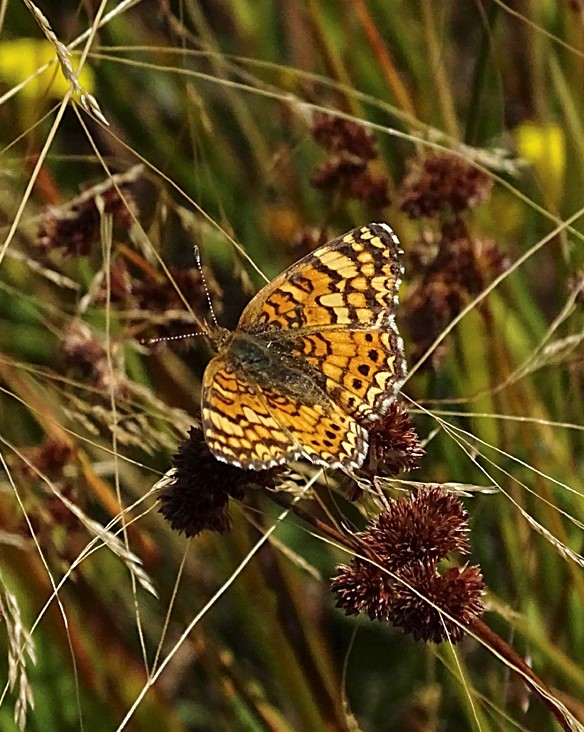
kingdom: Animalia
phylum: Arthropoda
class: Insecta
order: Lepidoptera
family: Nymphalidae
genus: Eresia
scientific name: Eresia aveyrona
